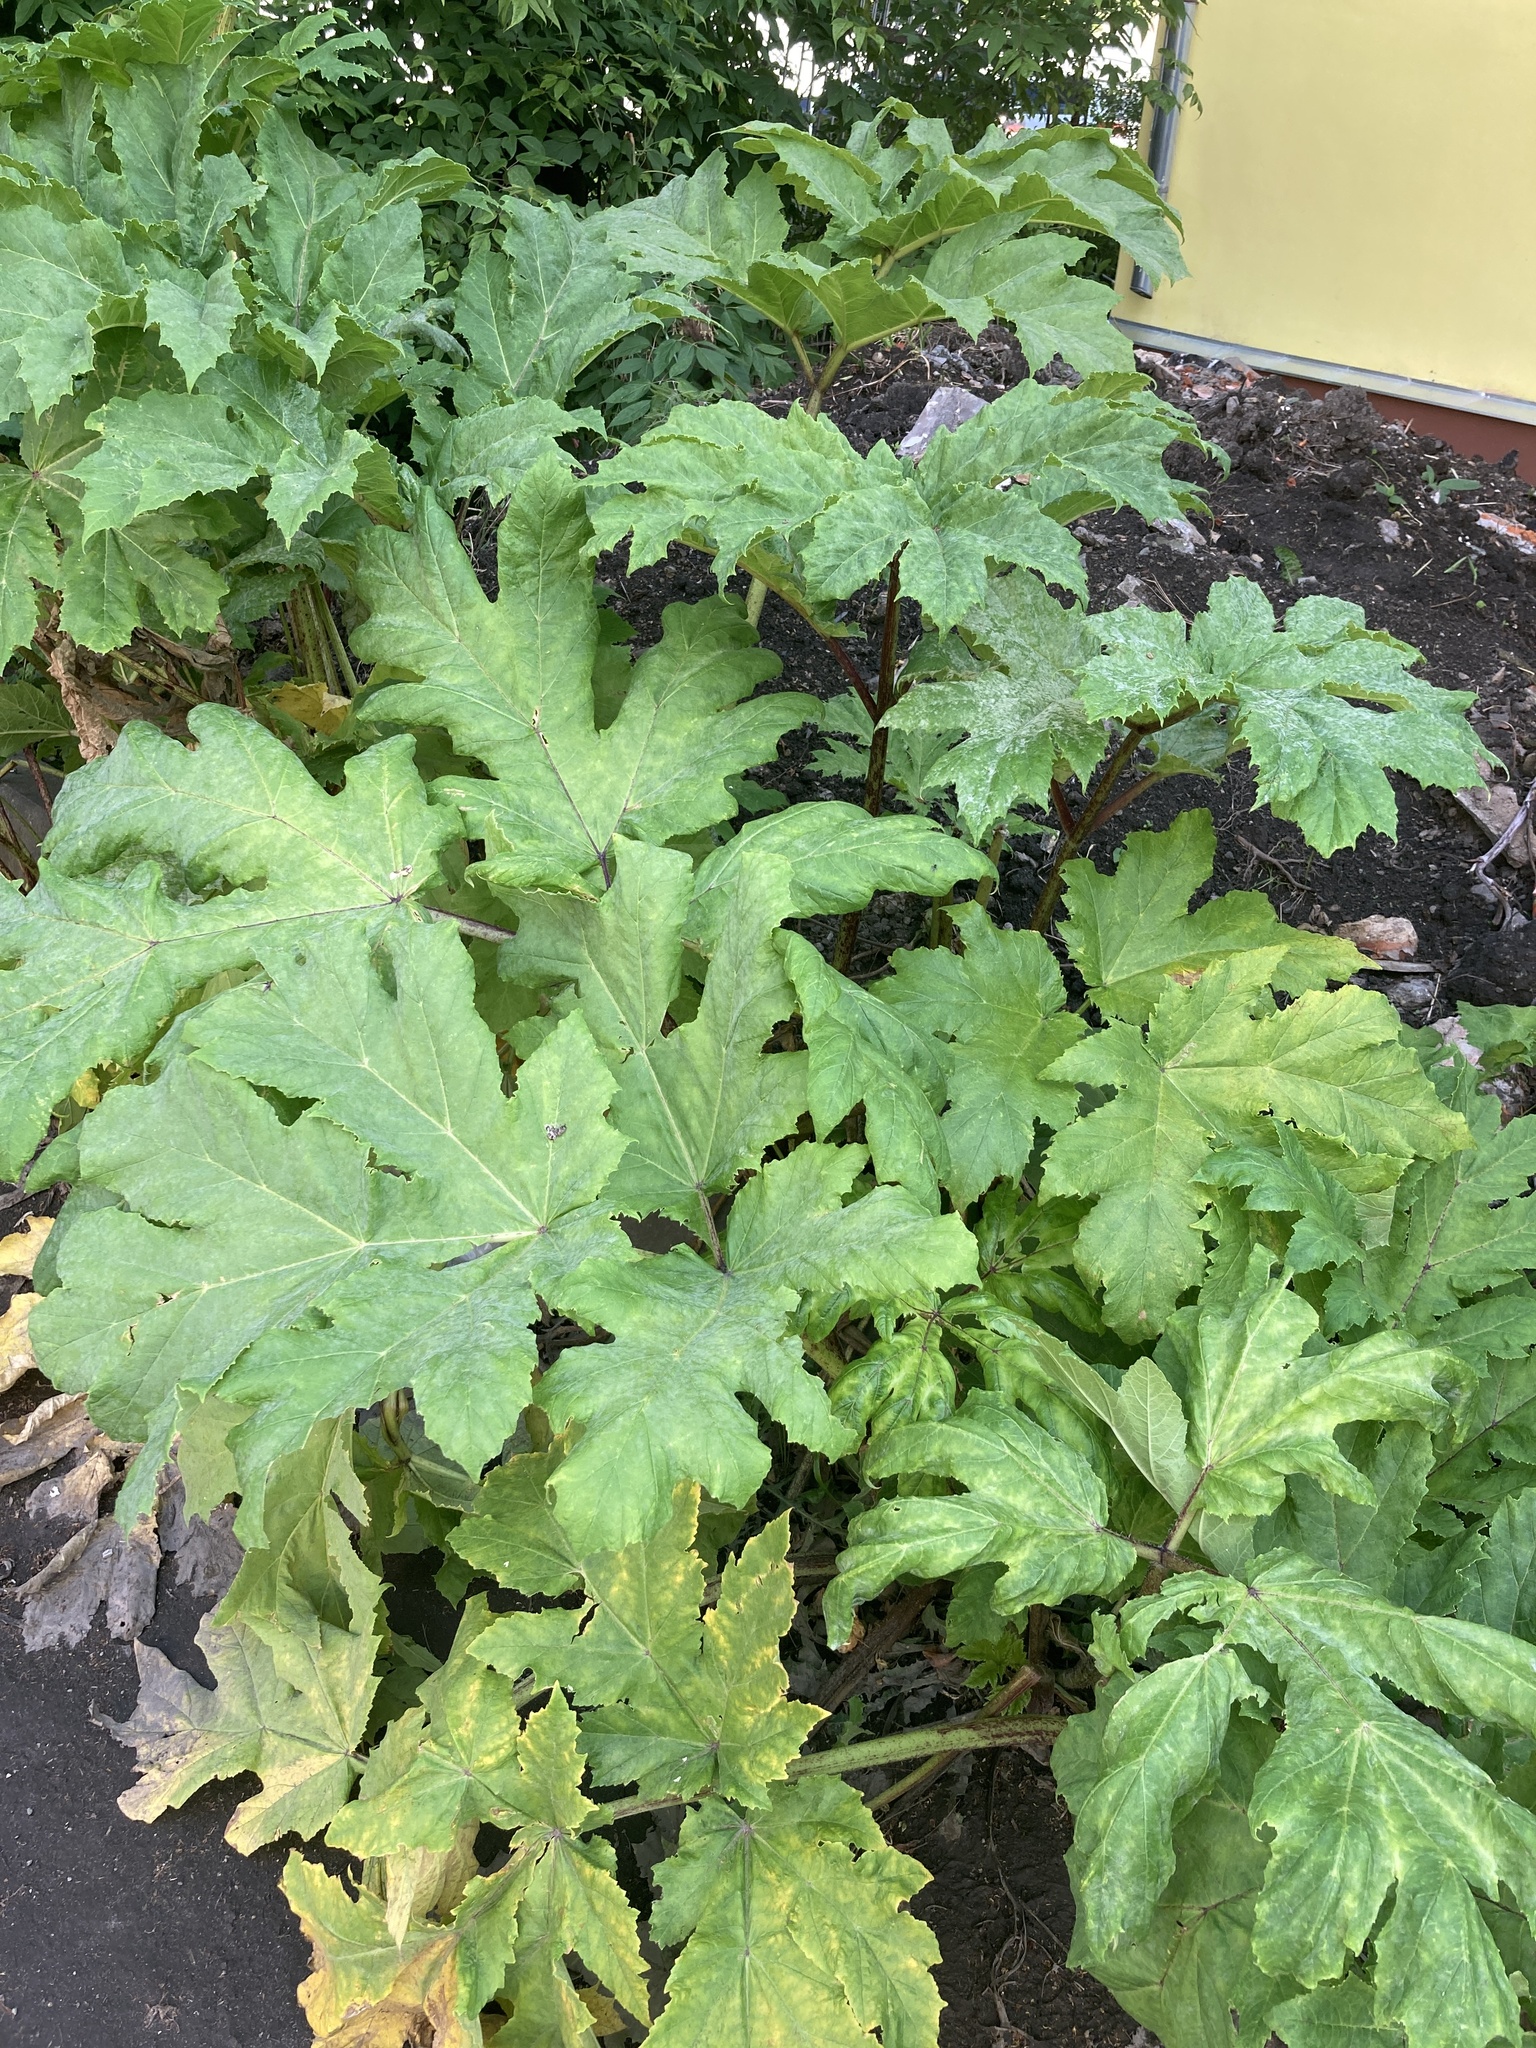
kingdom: Plantae
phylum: Tracheophyta
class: Magnoliopsida
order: Apiales
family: Apiaceae
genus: Heracleum
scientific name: Heracleum sosnowskyi
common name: Sosnowsky's hogweed
